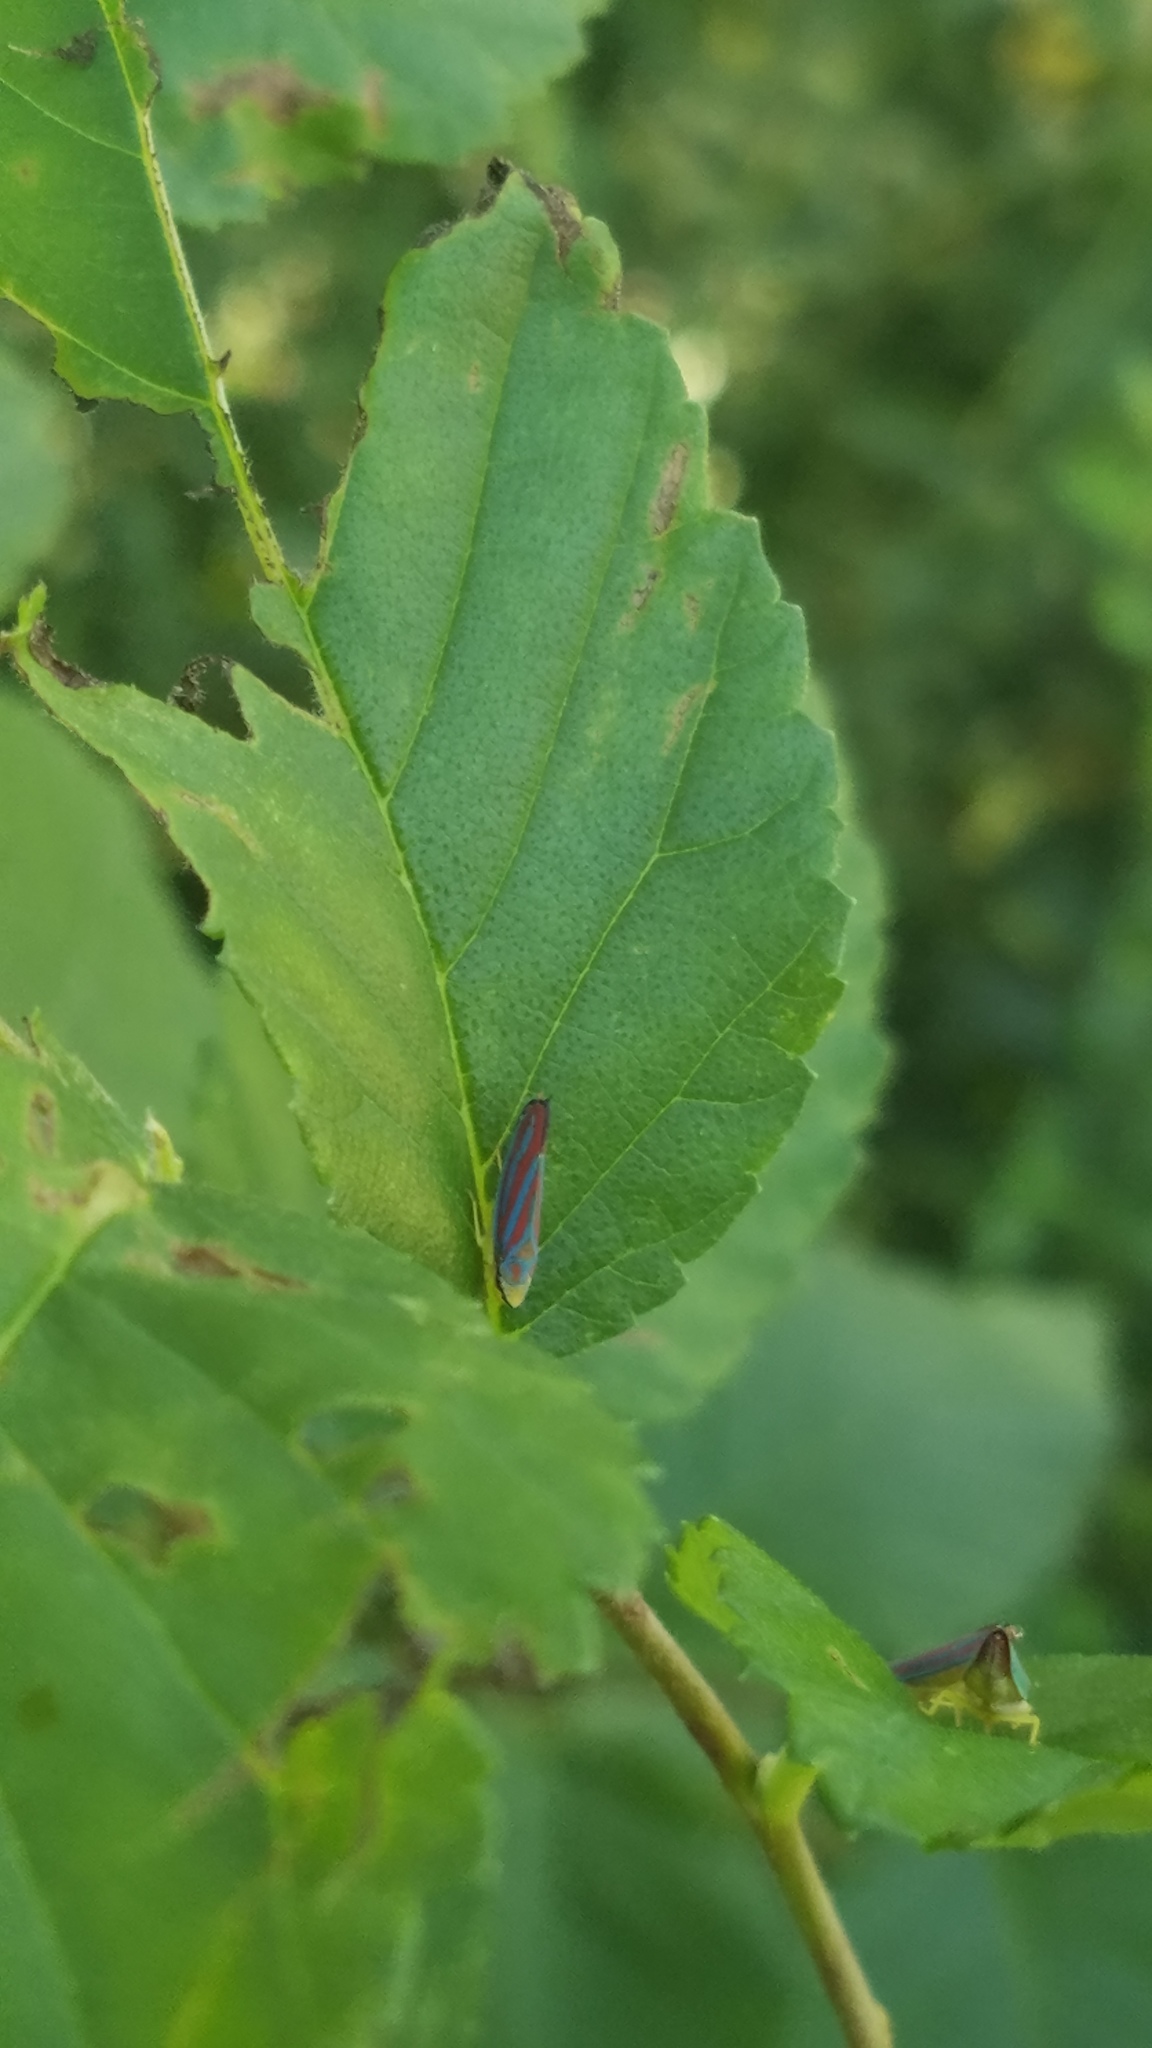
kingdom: Animalia
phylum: Arthropoda
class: Insecta
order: Hemiptera
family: Cicadellidae
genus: Graphocephala
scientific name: Graphocephala coccinea
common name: Candy-striped leafhopper
